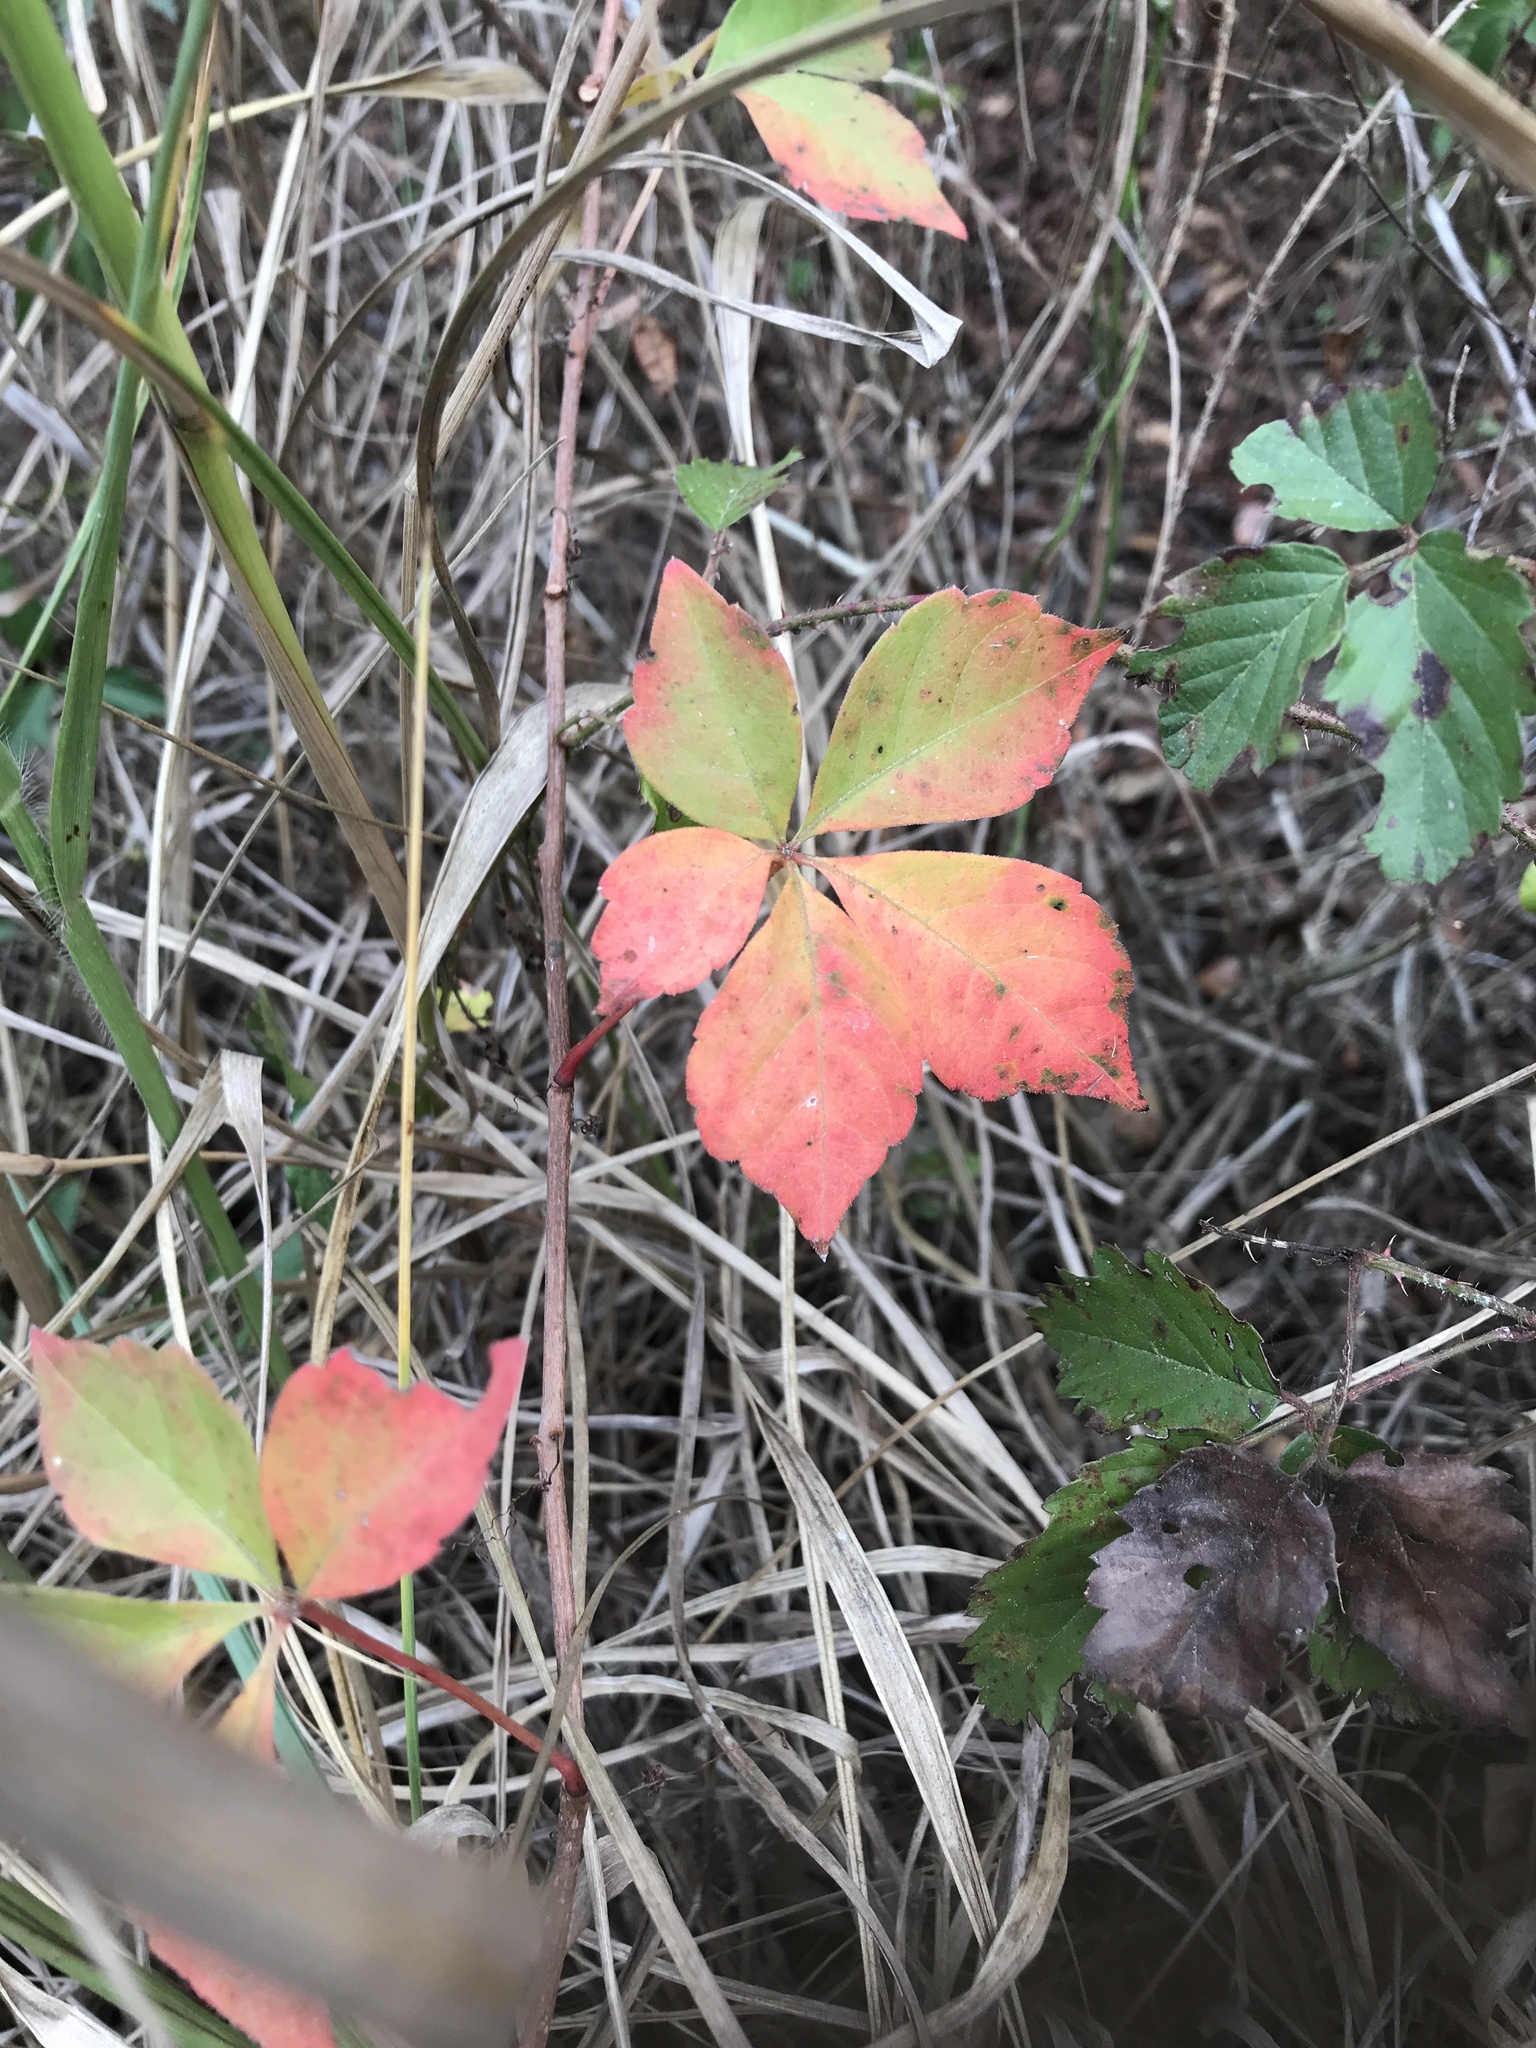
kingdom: Plantae
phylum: Tracheophyta
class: Magnoliopsida
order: Vitales
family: Vitaceae
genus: Parthenocissus
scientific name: Parthenocissus quinquefolia
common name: Virginia-creeper
